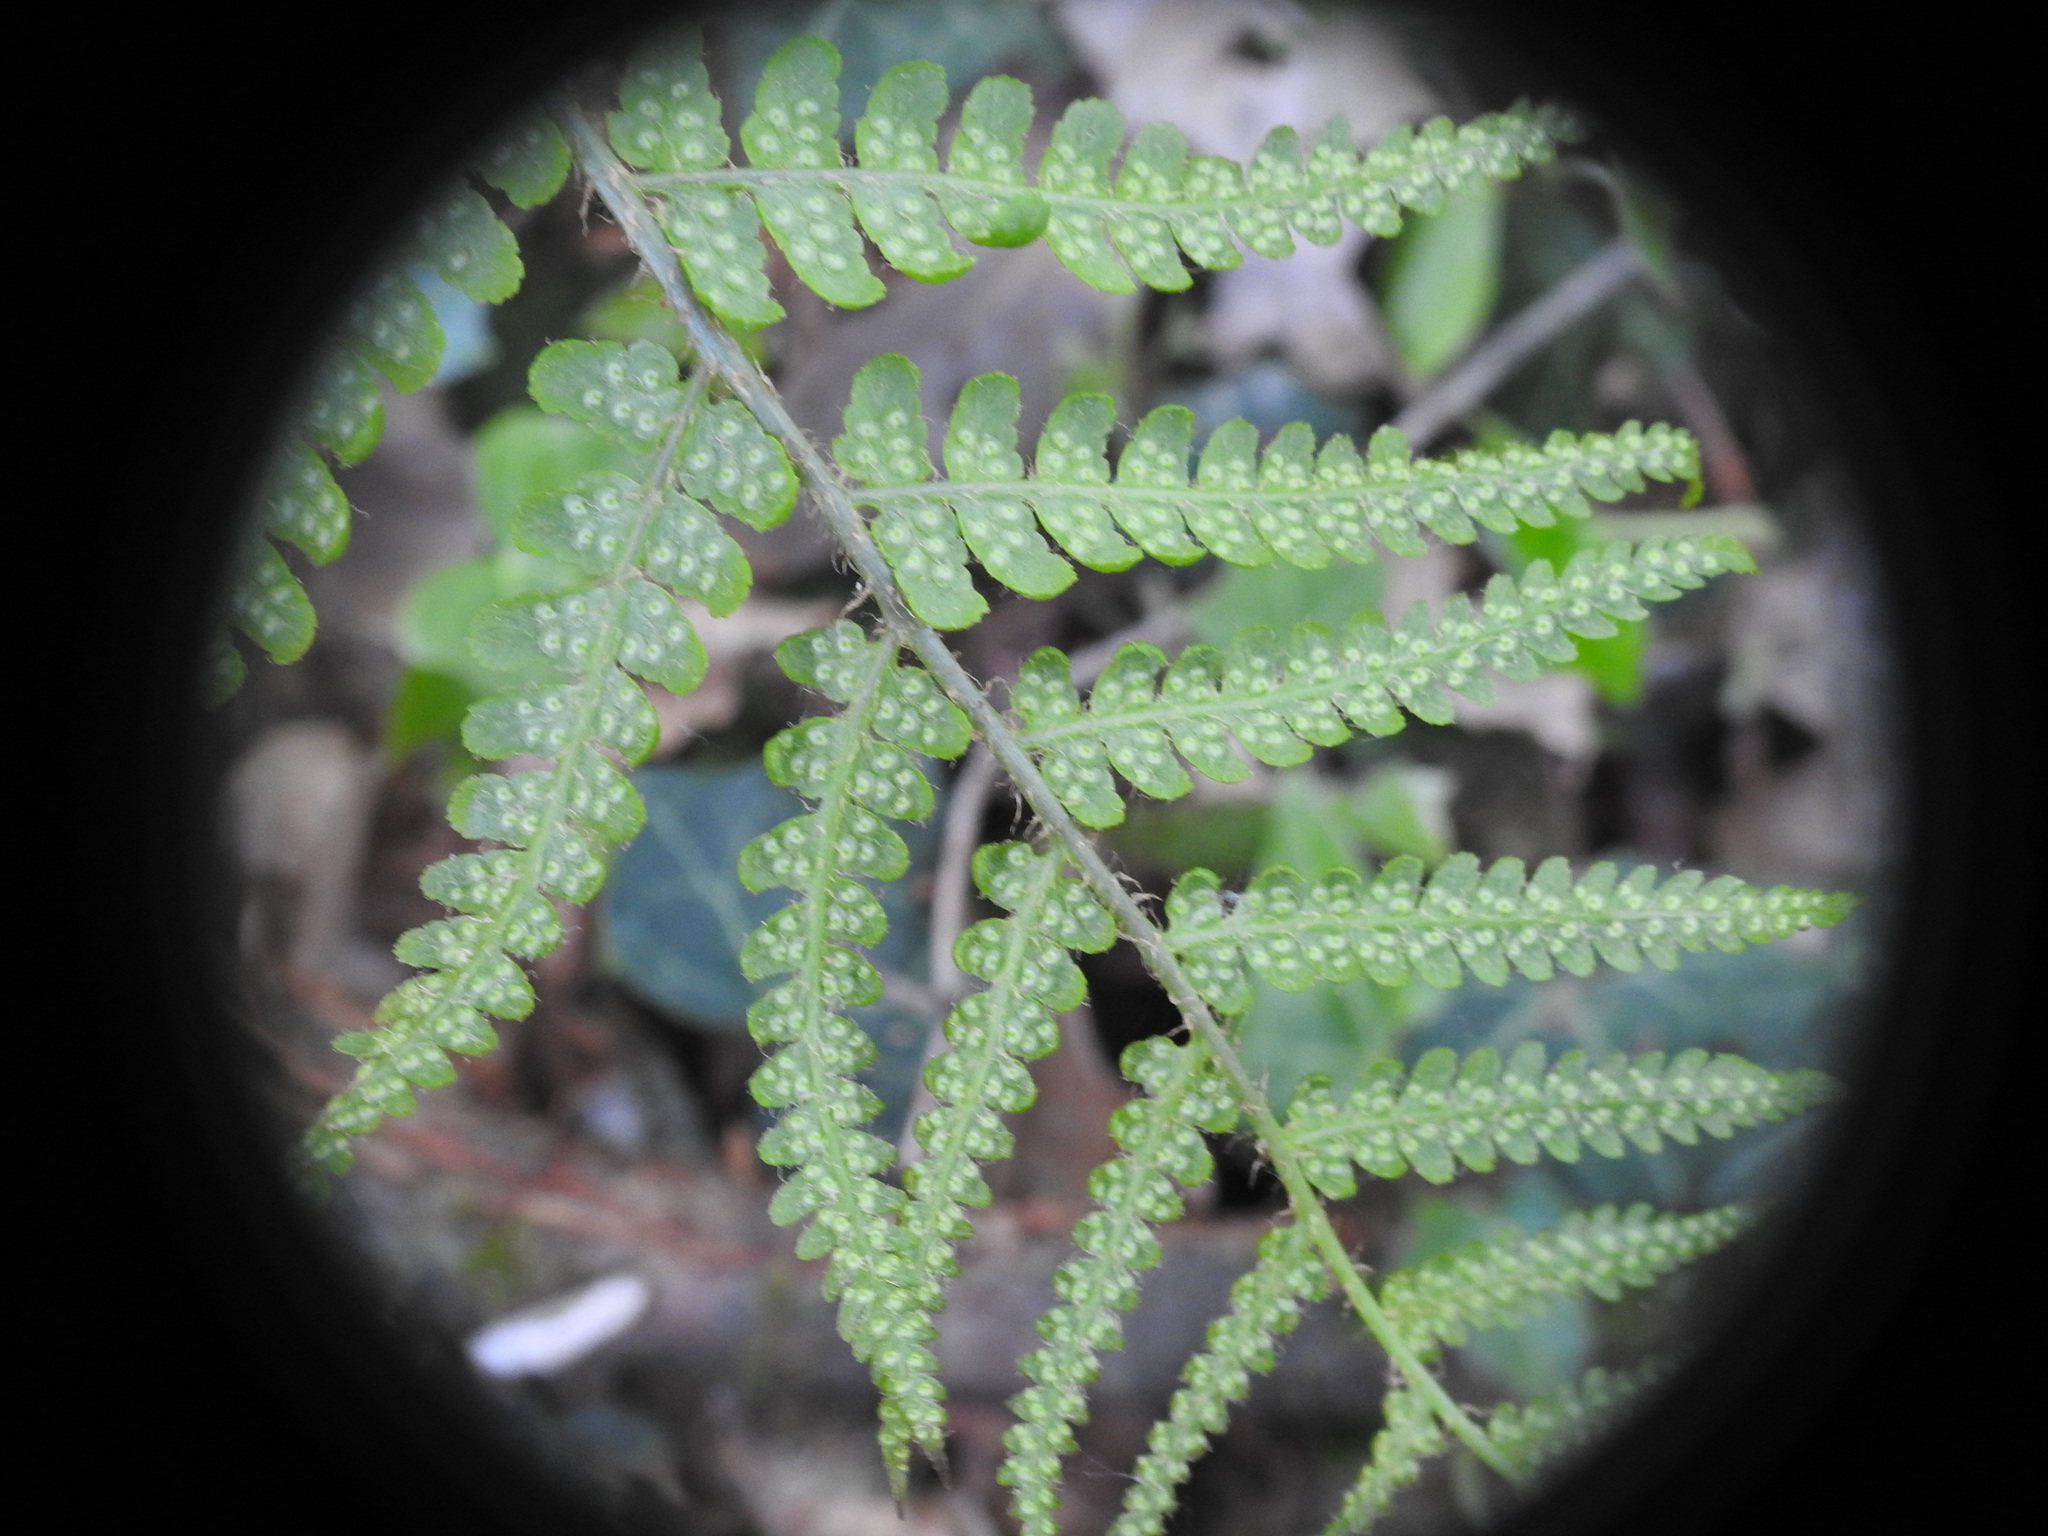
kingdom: Plantae
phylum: Tracheophyta
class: Polypodiopsida
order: Polypodiales
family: Dryopteridaceae
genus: Dryopteris
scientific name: Dryopteris filix-mas
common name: Male fern
